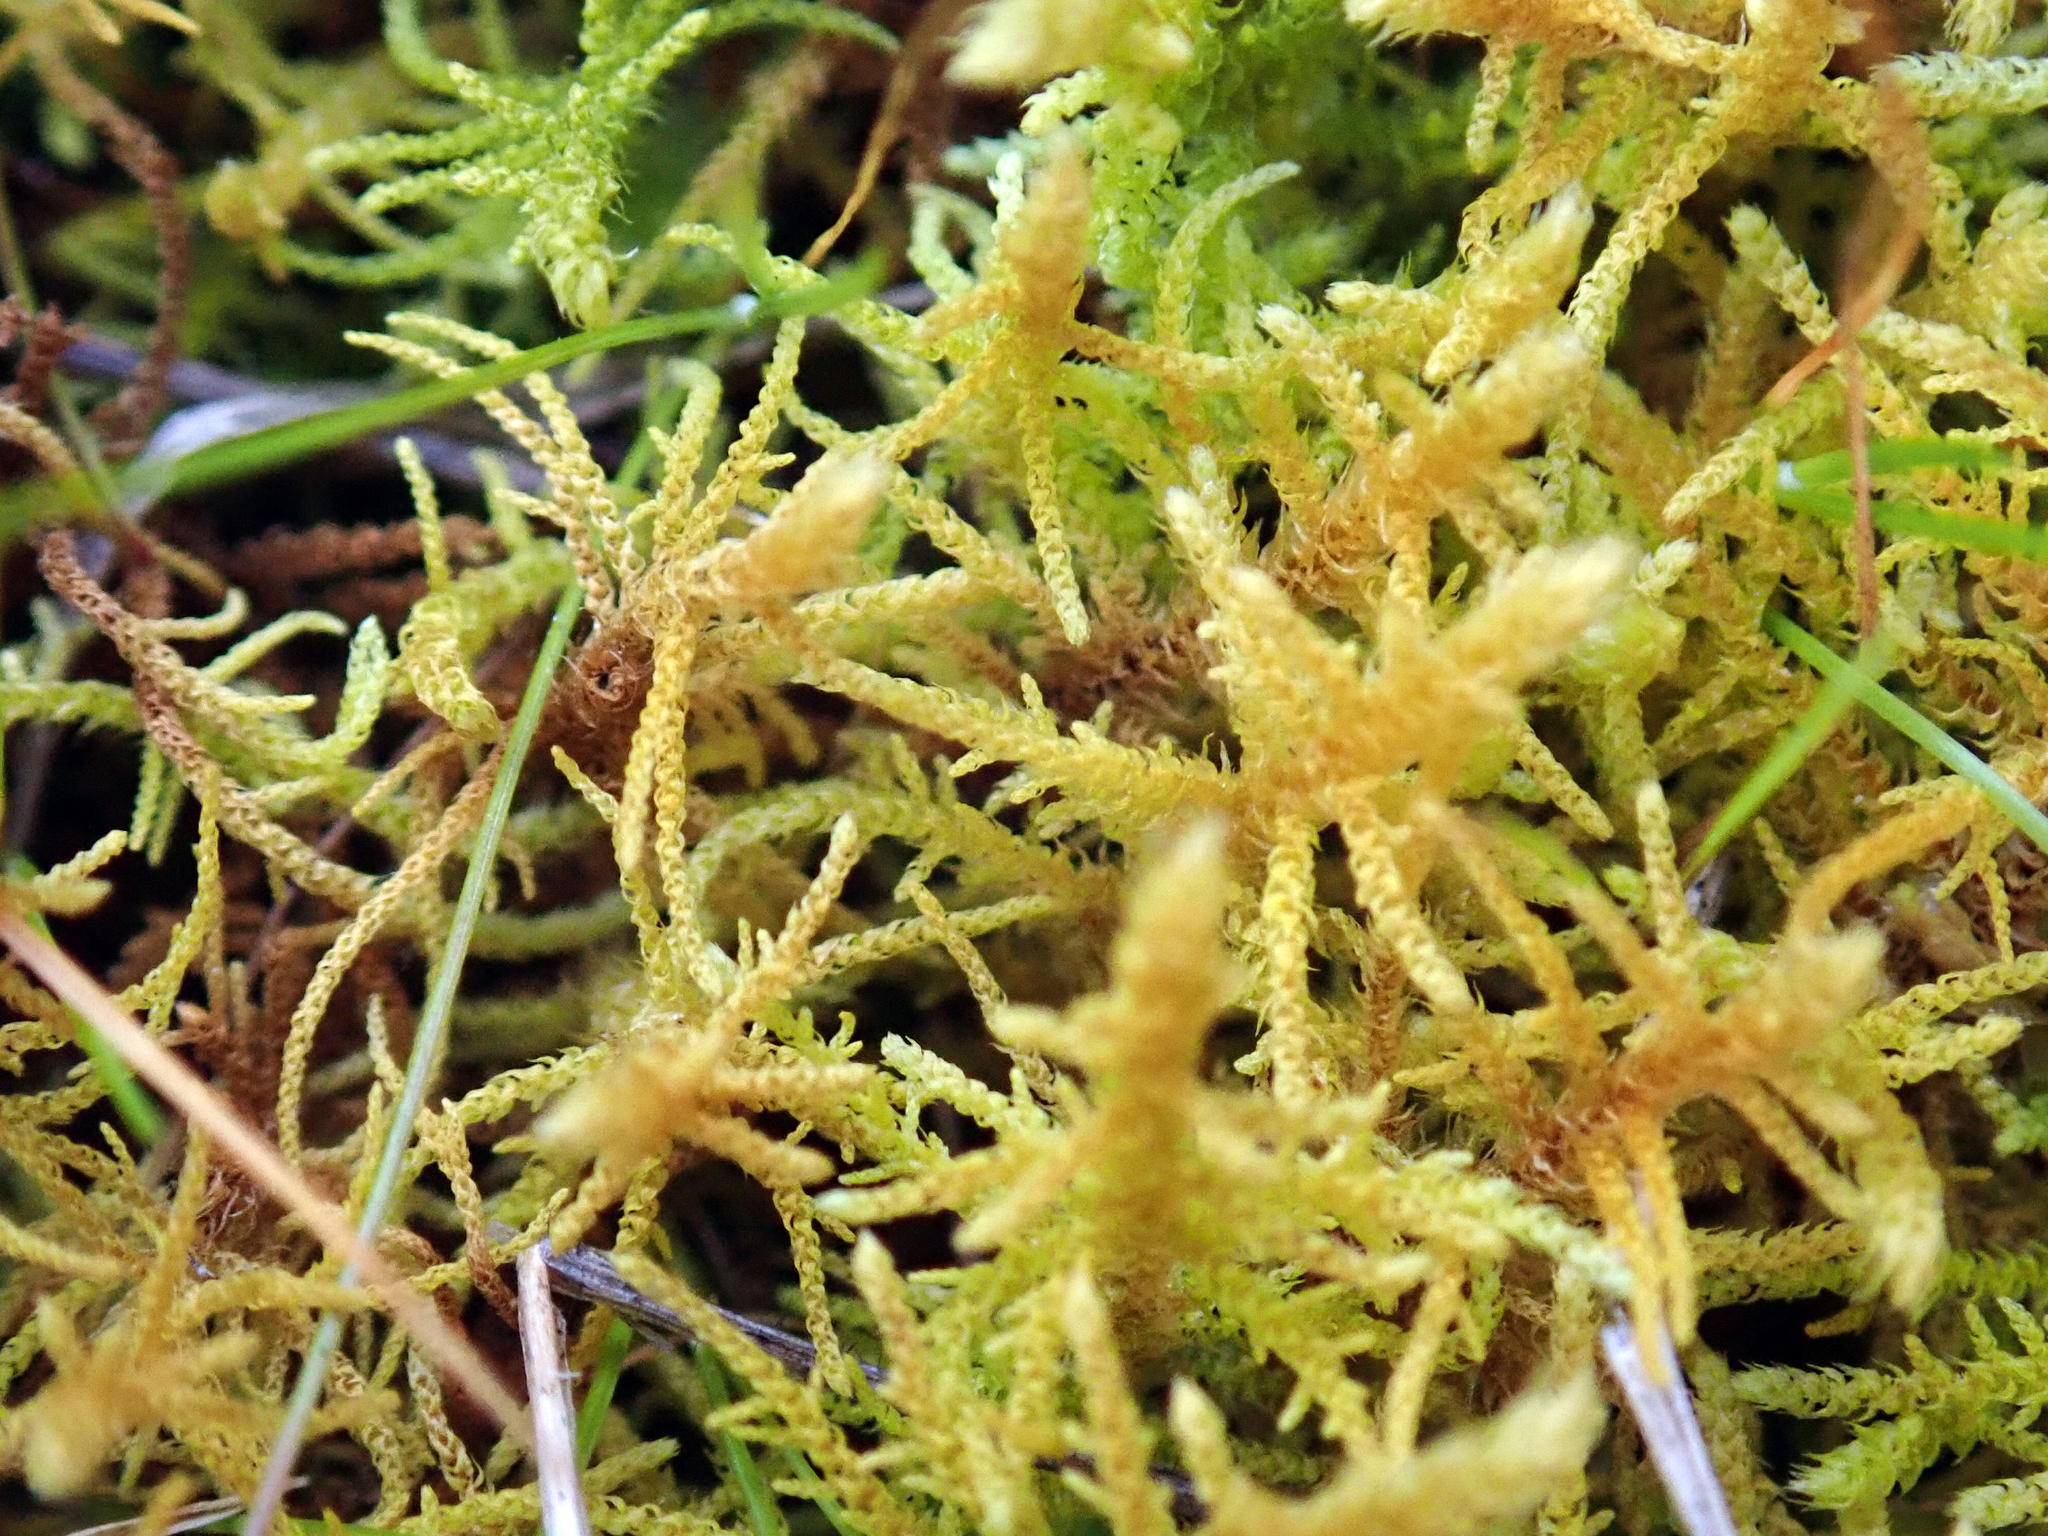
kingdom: Plantae
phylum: Bryophyta
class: Bryopsida
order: Hypnales
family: Thuidiaceae
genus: Thuidiopsis
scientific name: Thuidiopsis furfurosa
